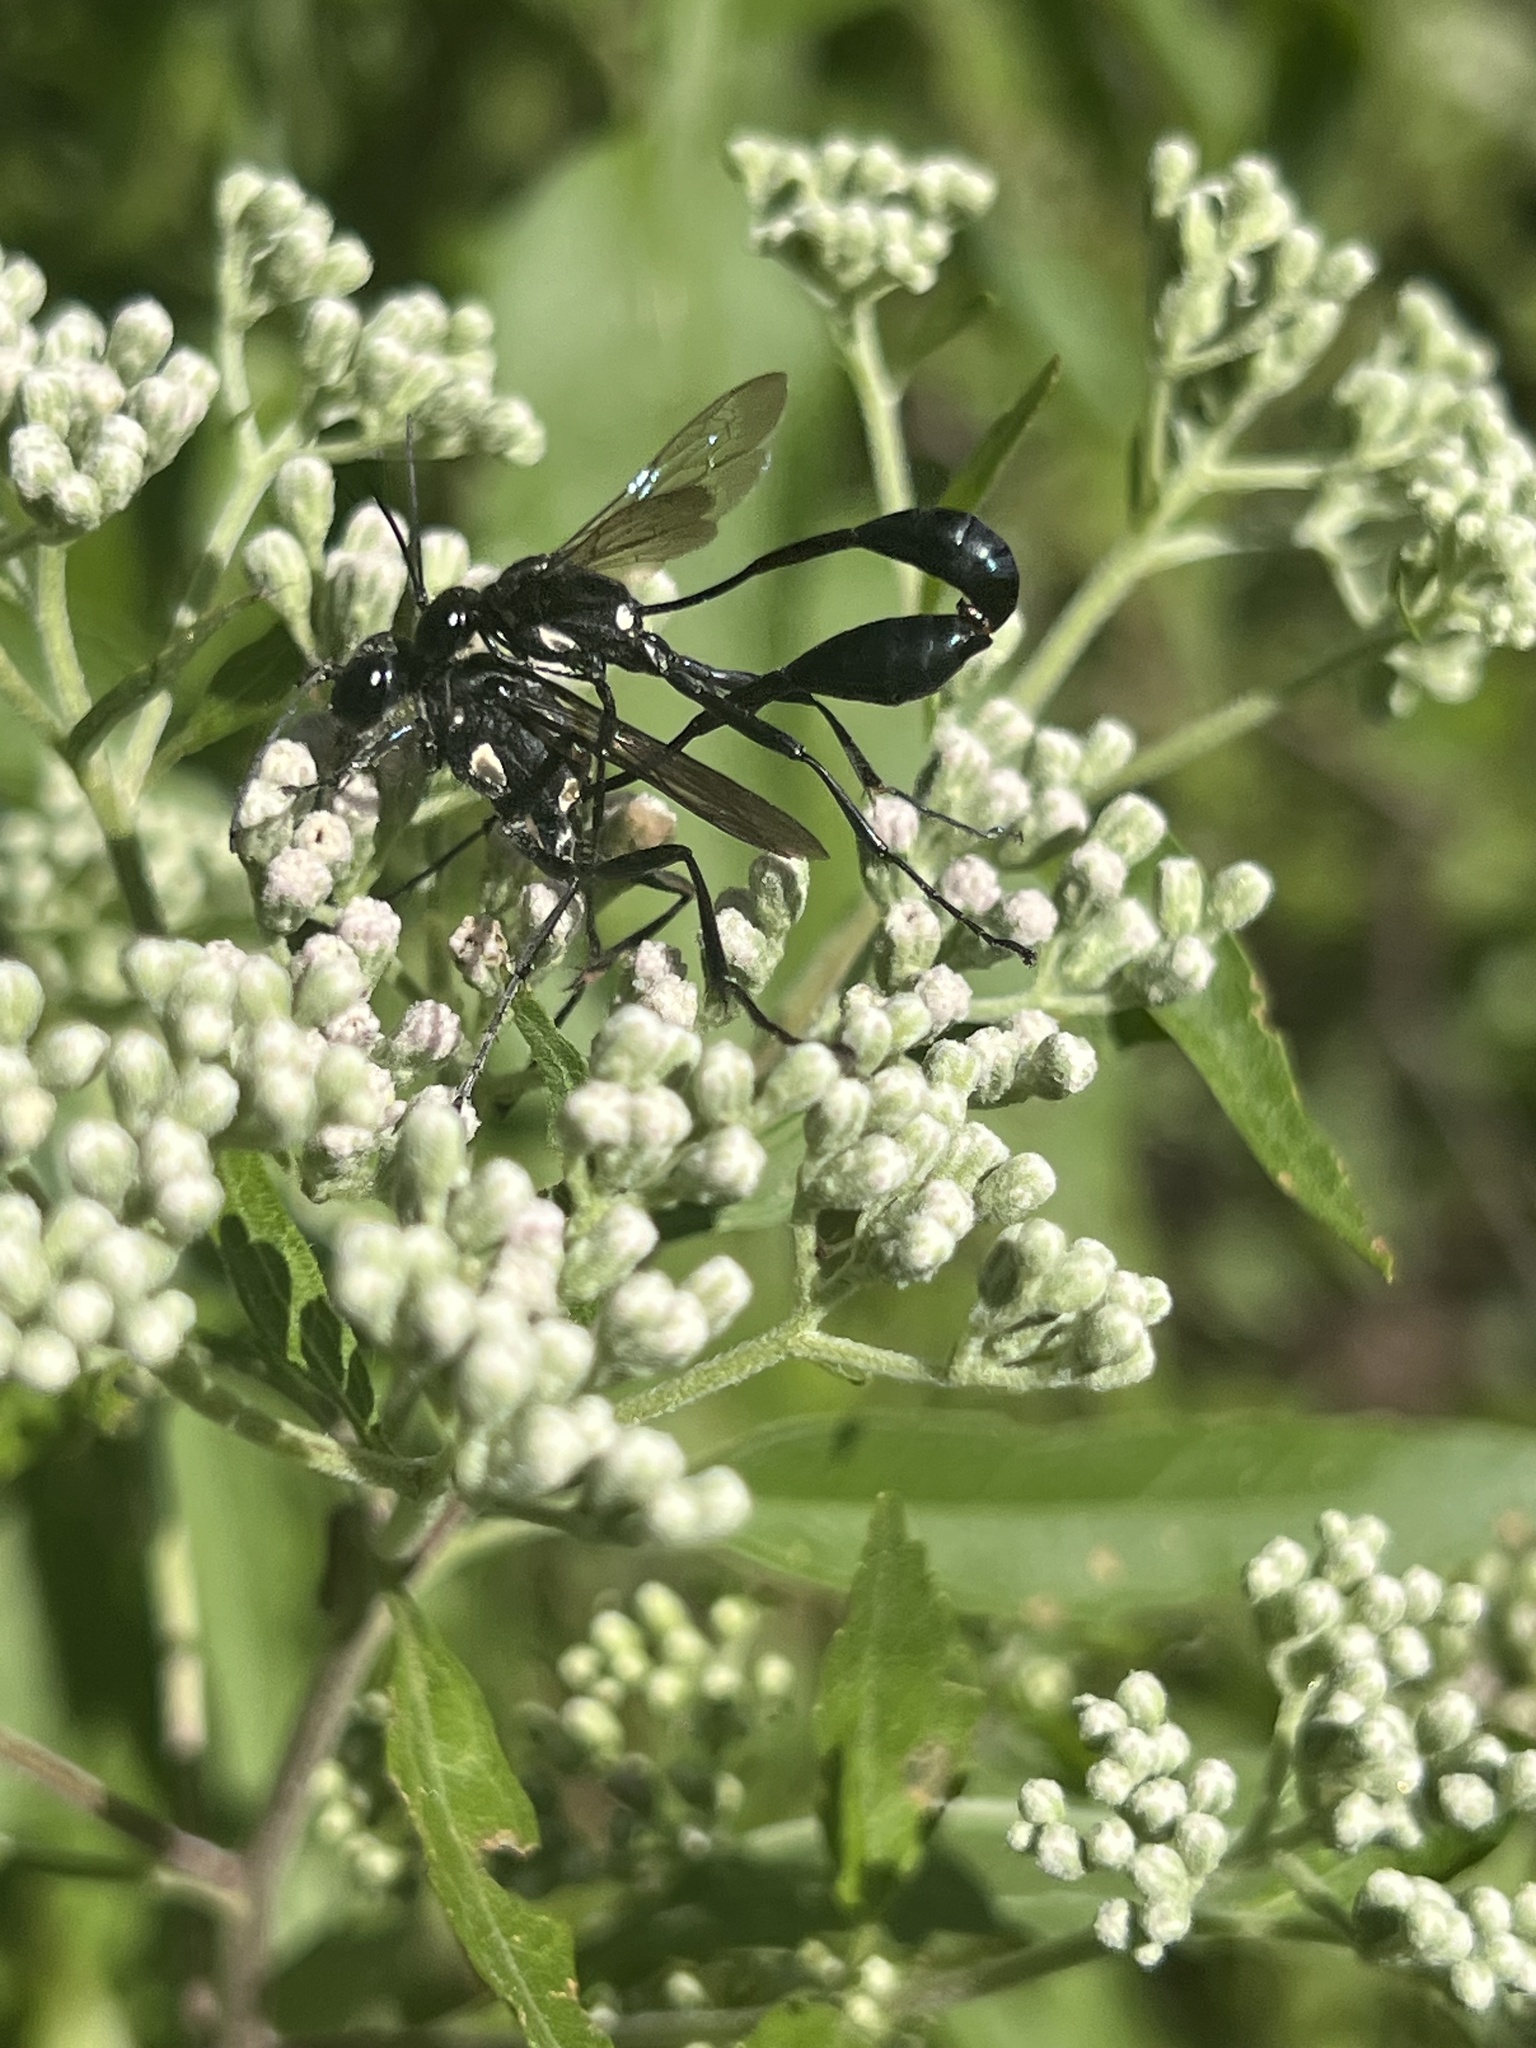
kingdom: Animalia
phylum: Arthropoda
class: Insecta
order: Hymenoptera
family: Sphecidae
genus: Eremnophila
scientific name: Eremnophila aureonotata
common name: Gold-marked thread-waisted wasp
